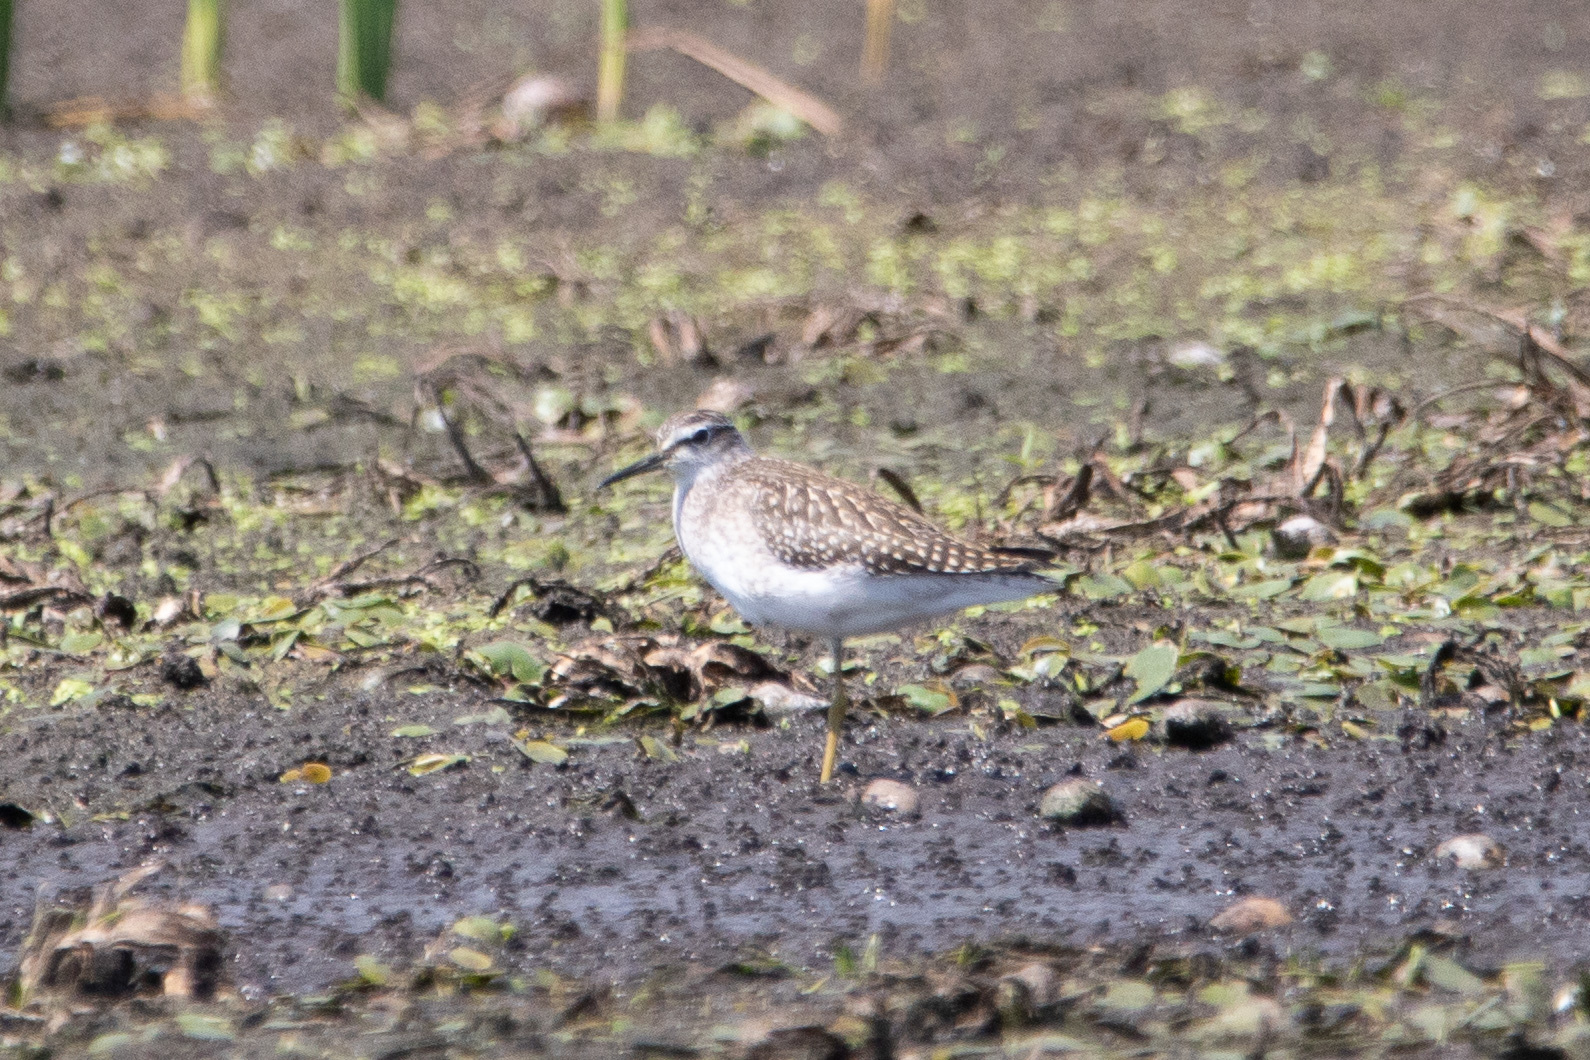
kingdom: Animalia
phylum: Chordata
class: Aves
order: Charadriiformes
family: Scolopacidae
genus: Tringa
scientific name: Tringa glareola
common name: Wood sandpiper
